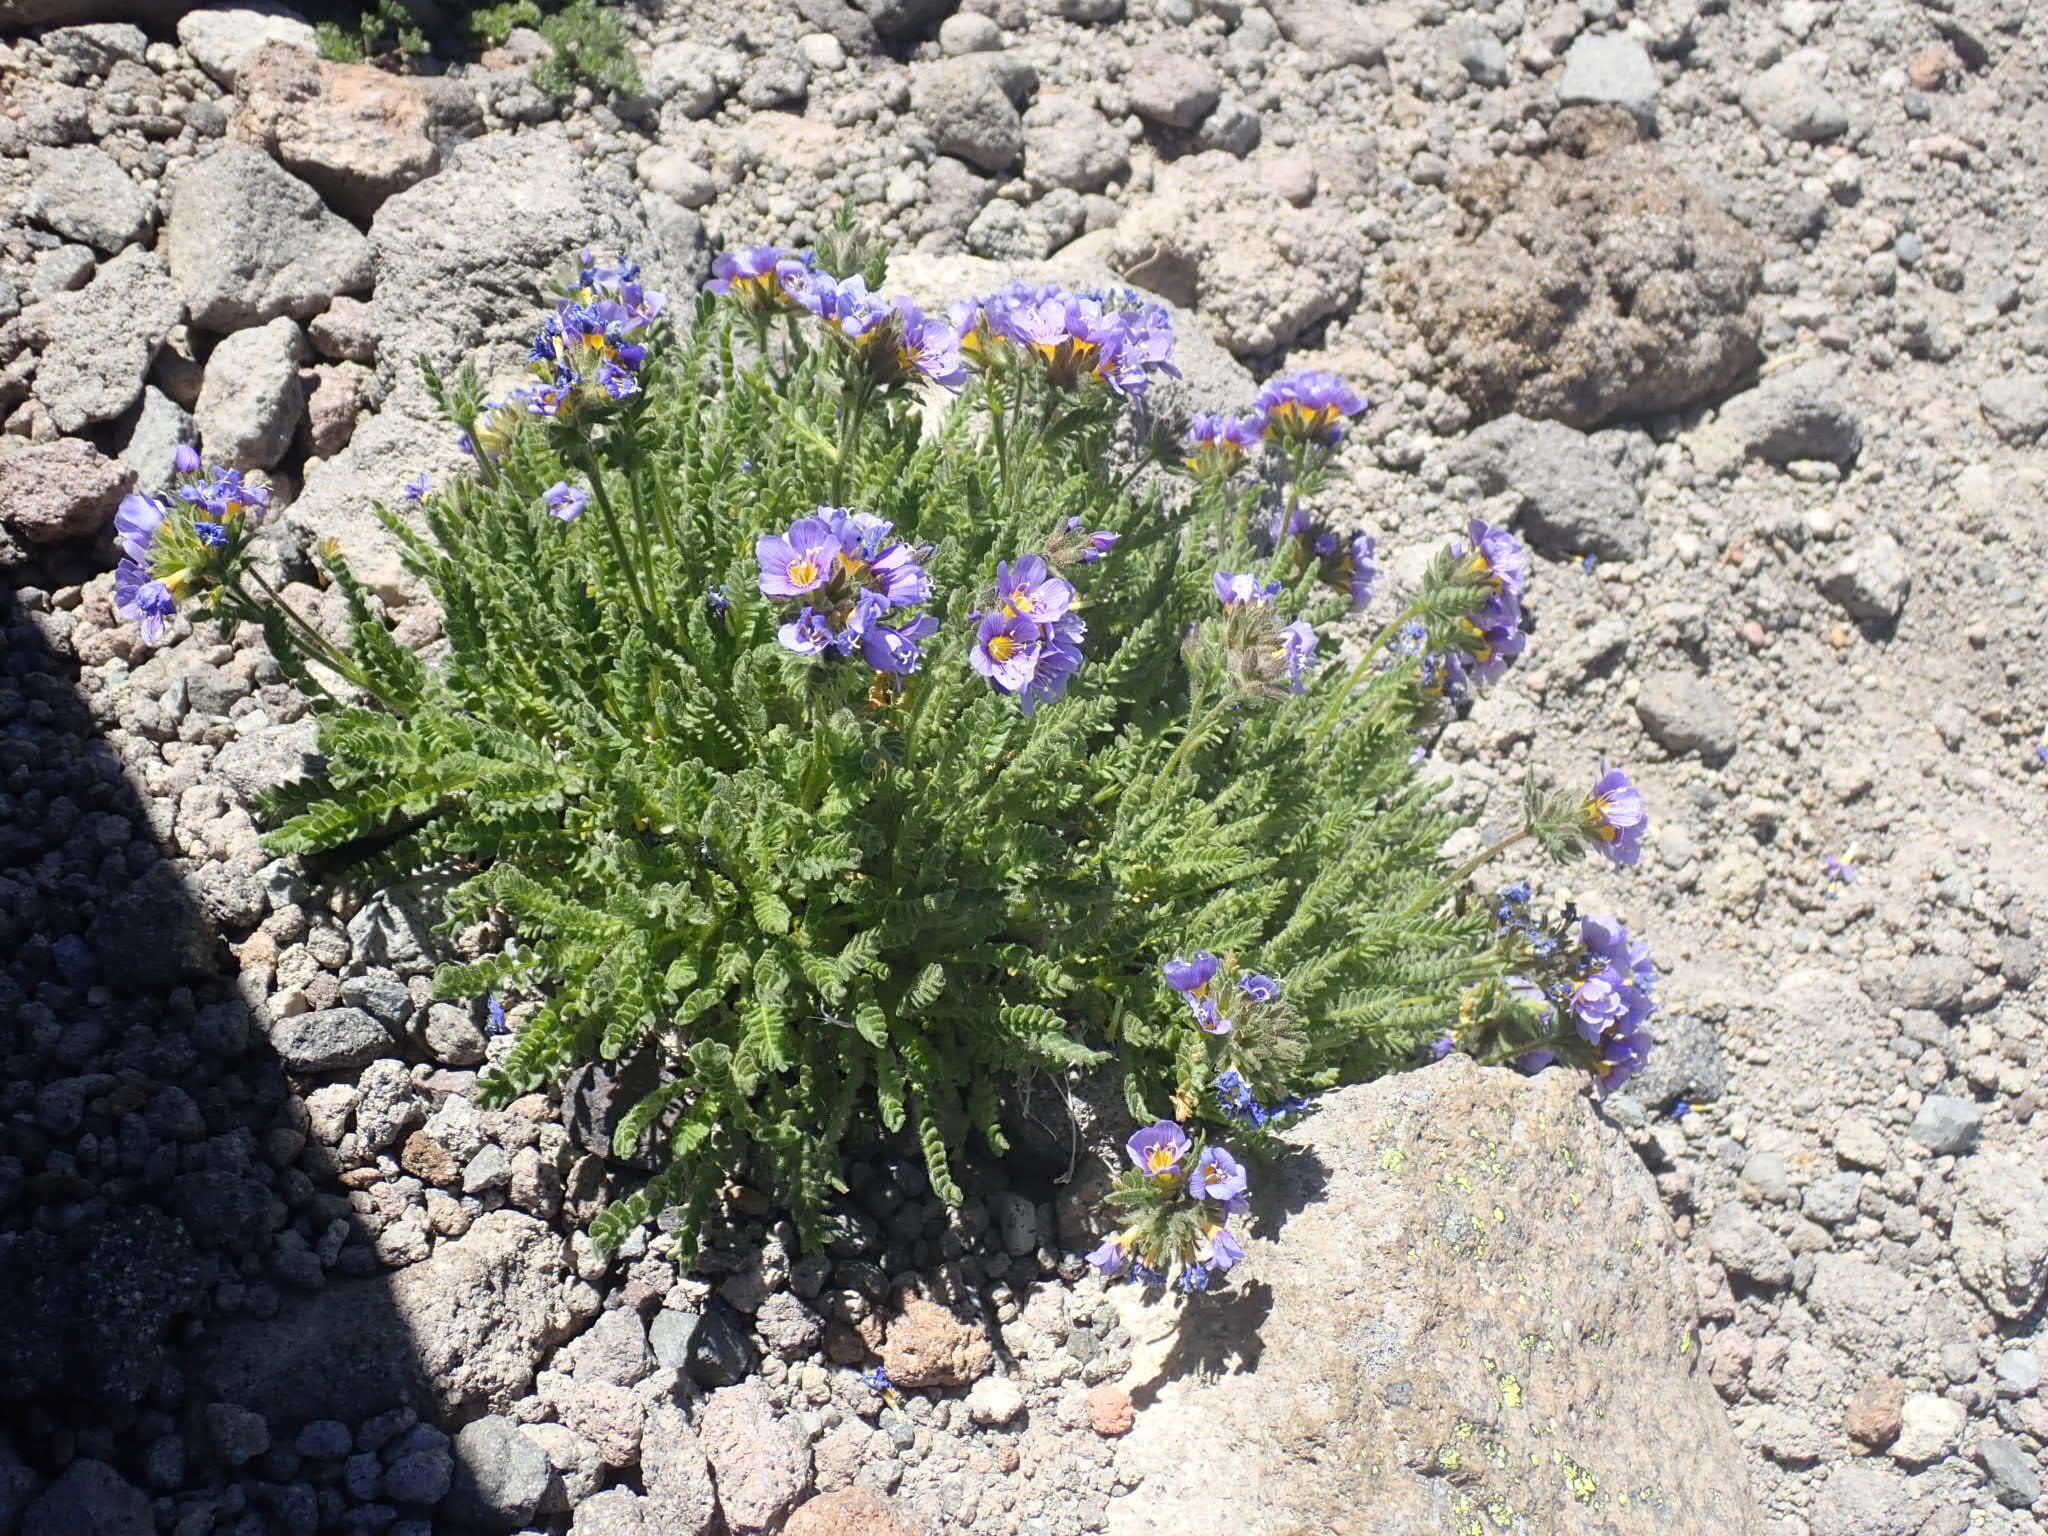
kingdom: Plantae
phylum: Tracheophyta
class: Magnoliopsida
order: Ericales
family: Polemoniaceae
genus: Polemonium
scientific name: Polemonium elegans
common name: Elegant jacob's-ladder
